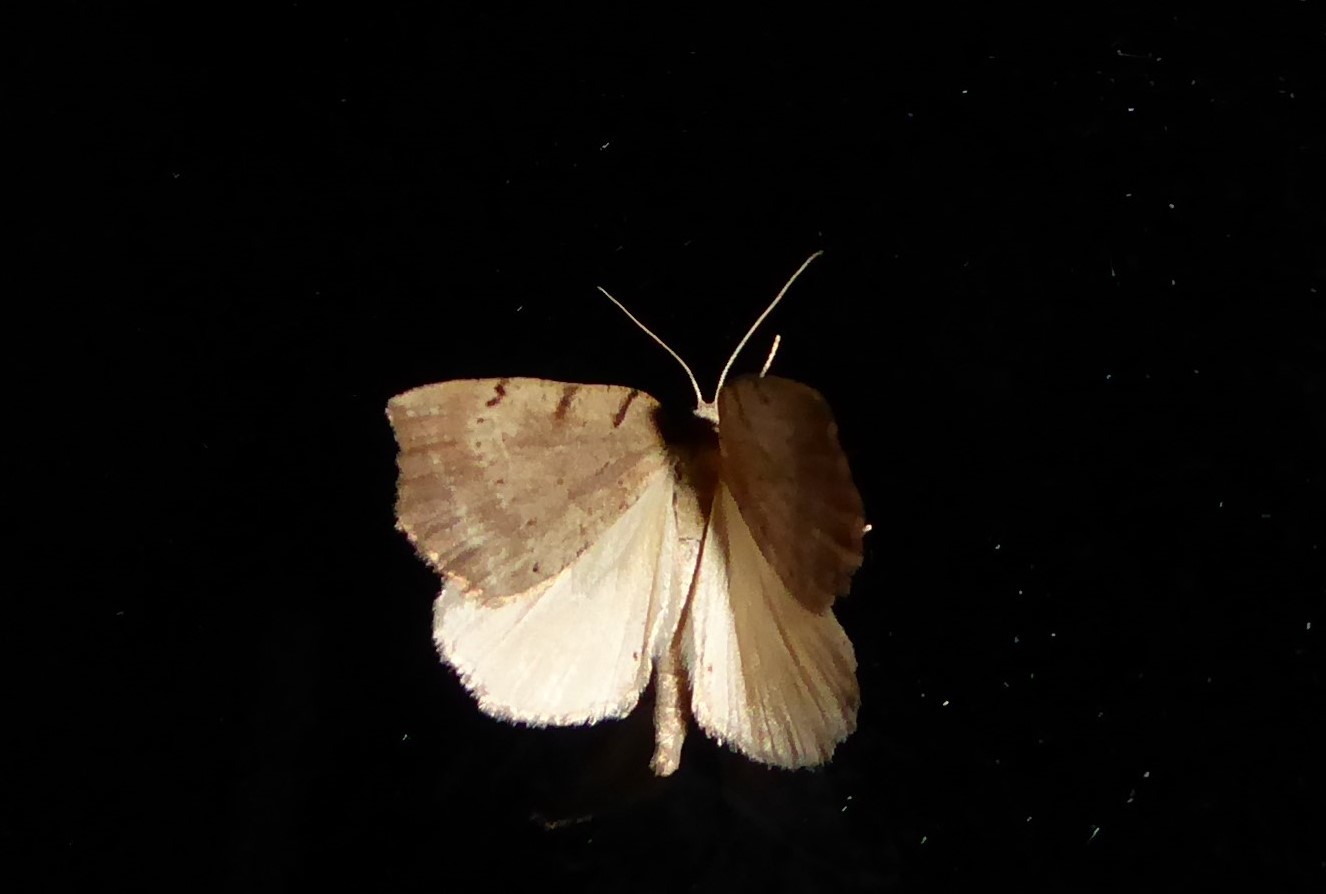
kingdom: Animalia
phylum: Arthropoda
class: Insecta
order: Lepidoptera
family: Geometridae
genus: Sestra
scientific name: Sestra humeraria
